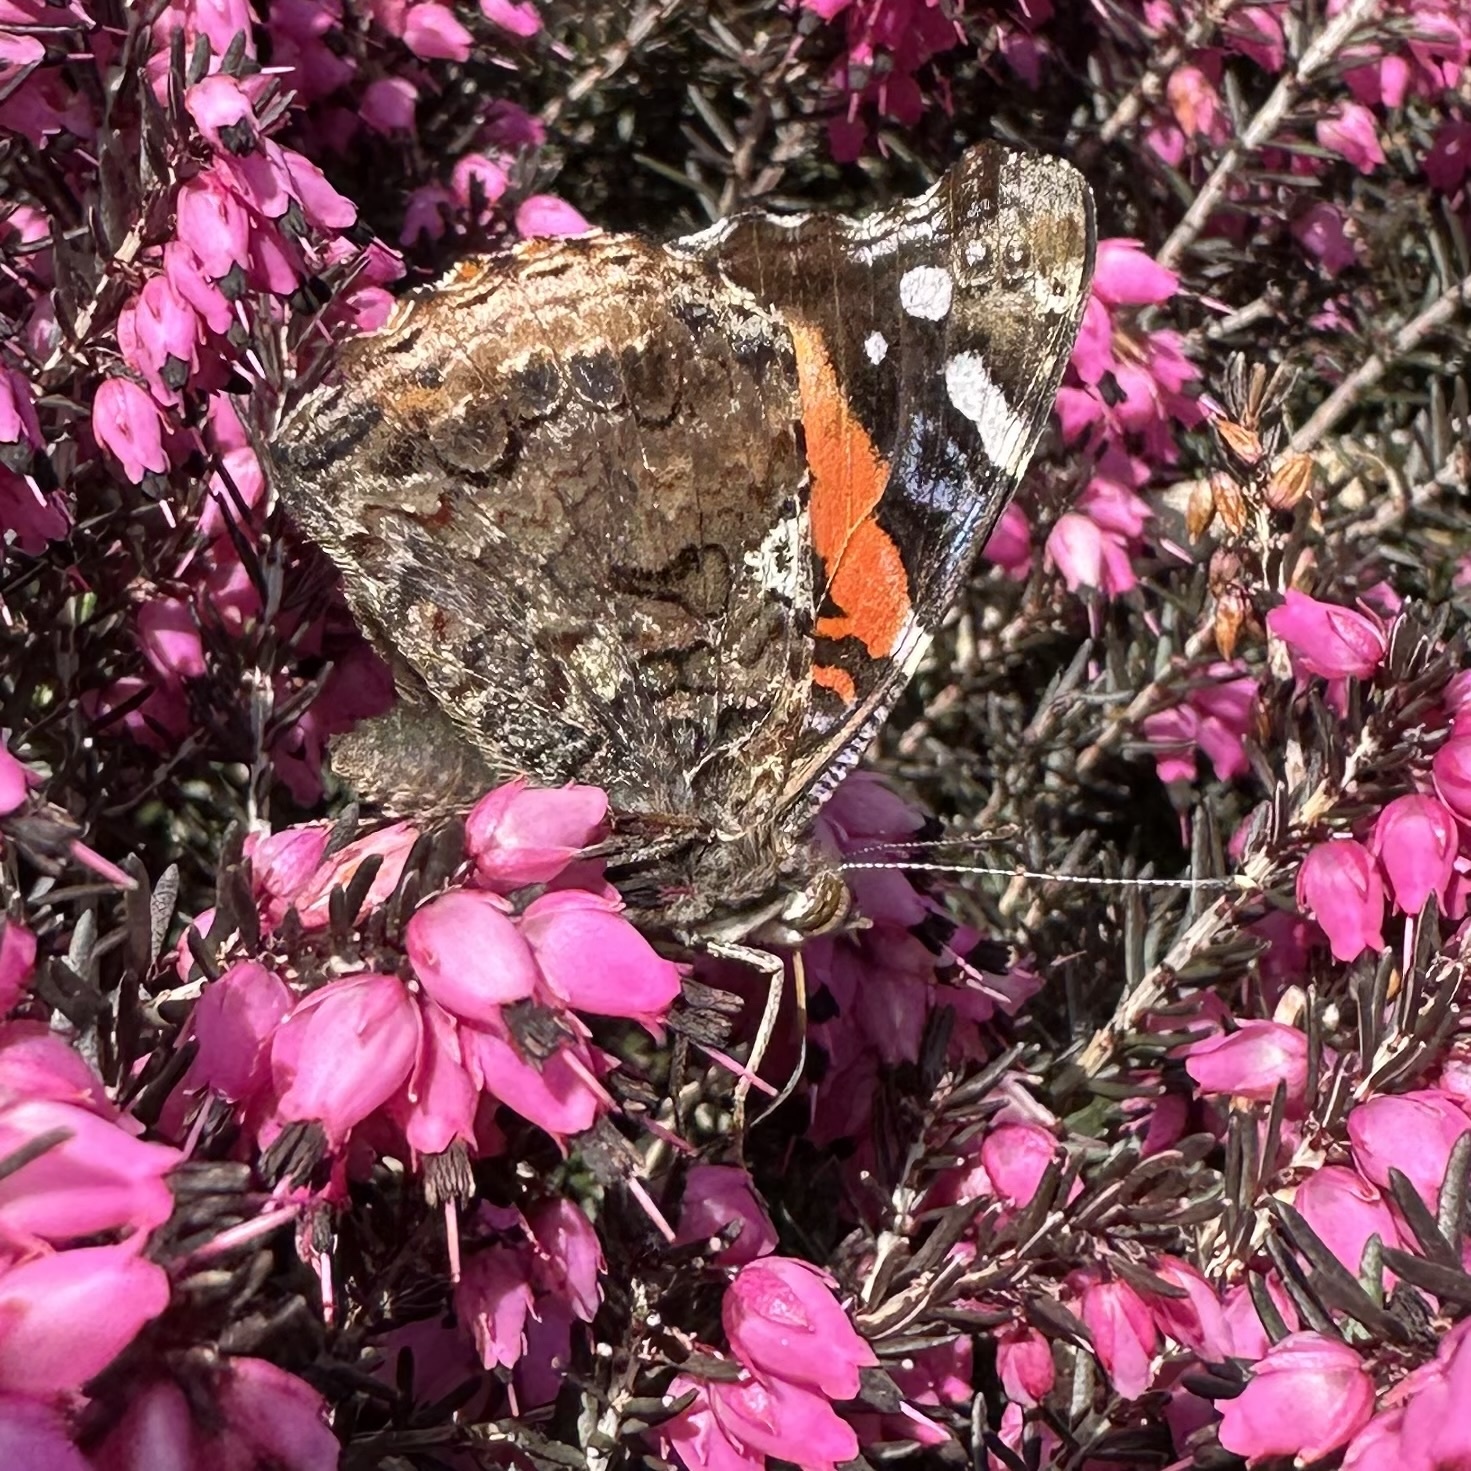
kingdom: Animalia
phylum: Arthropoda
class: Insecta
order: Lepidoptera
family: Nymphalidae
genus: Vanessa
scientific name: Vanessa atalanta
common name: Red admiral
